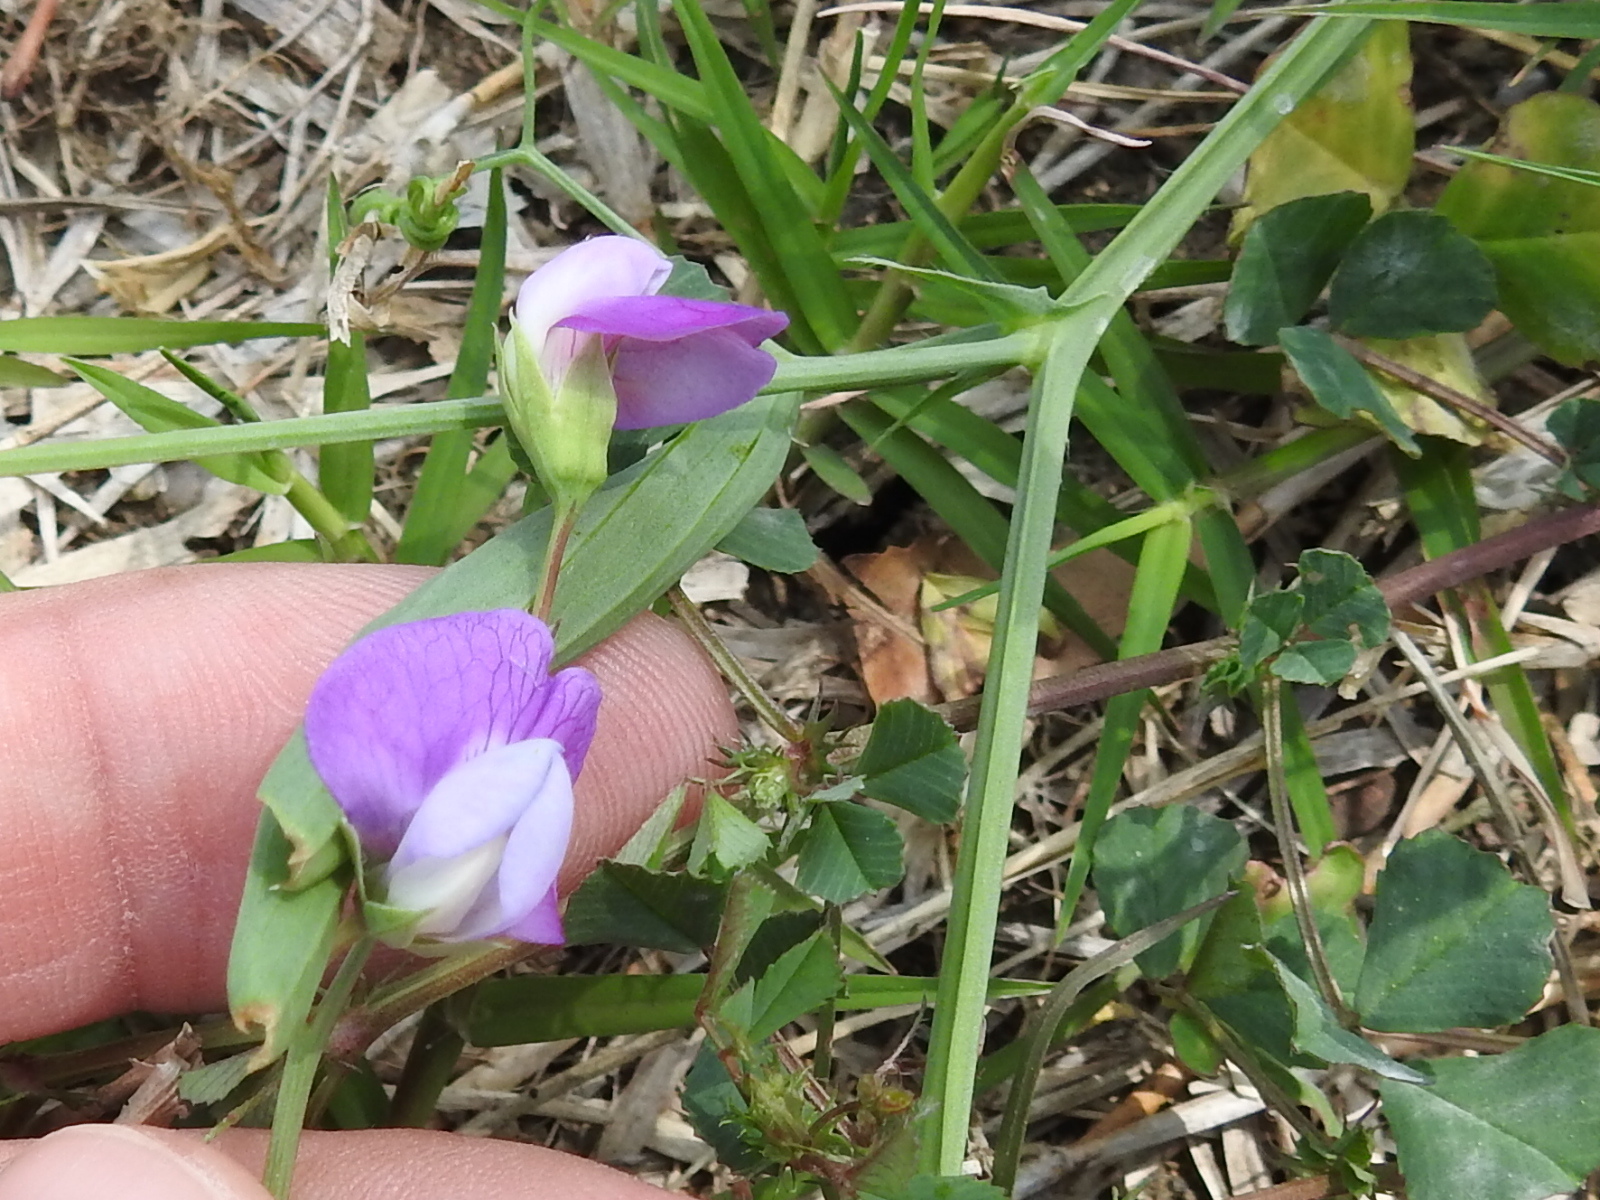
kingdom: Plantae
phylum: Tracheophyta
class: Magnoliopsida
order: Fabales
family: Fabaceae
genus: Lathyrus
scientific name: Lathyrus hirsutus
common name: Hairy vetchling
